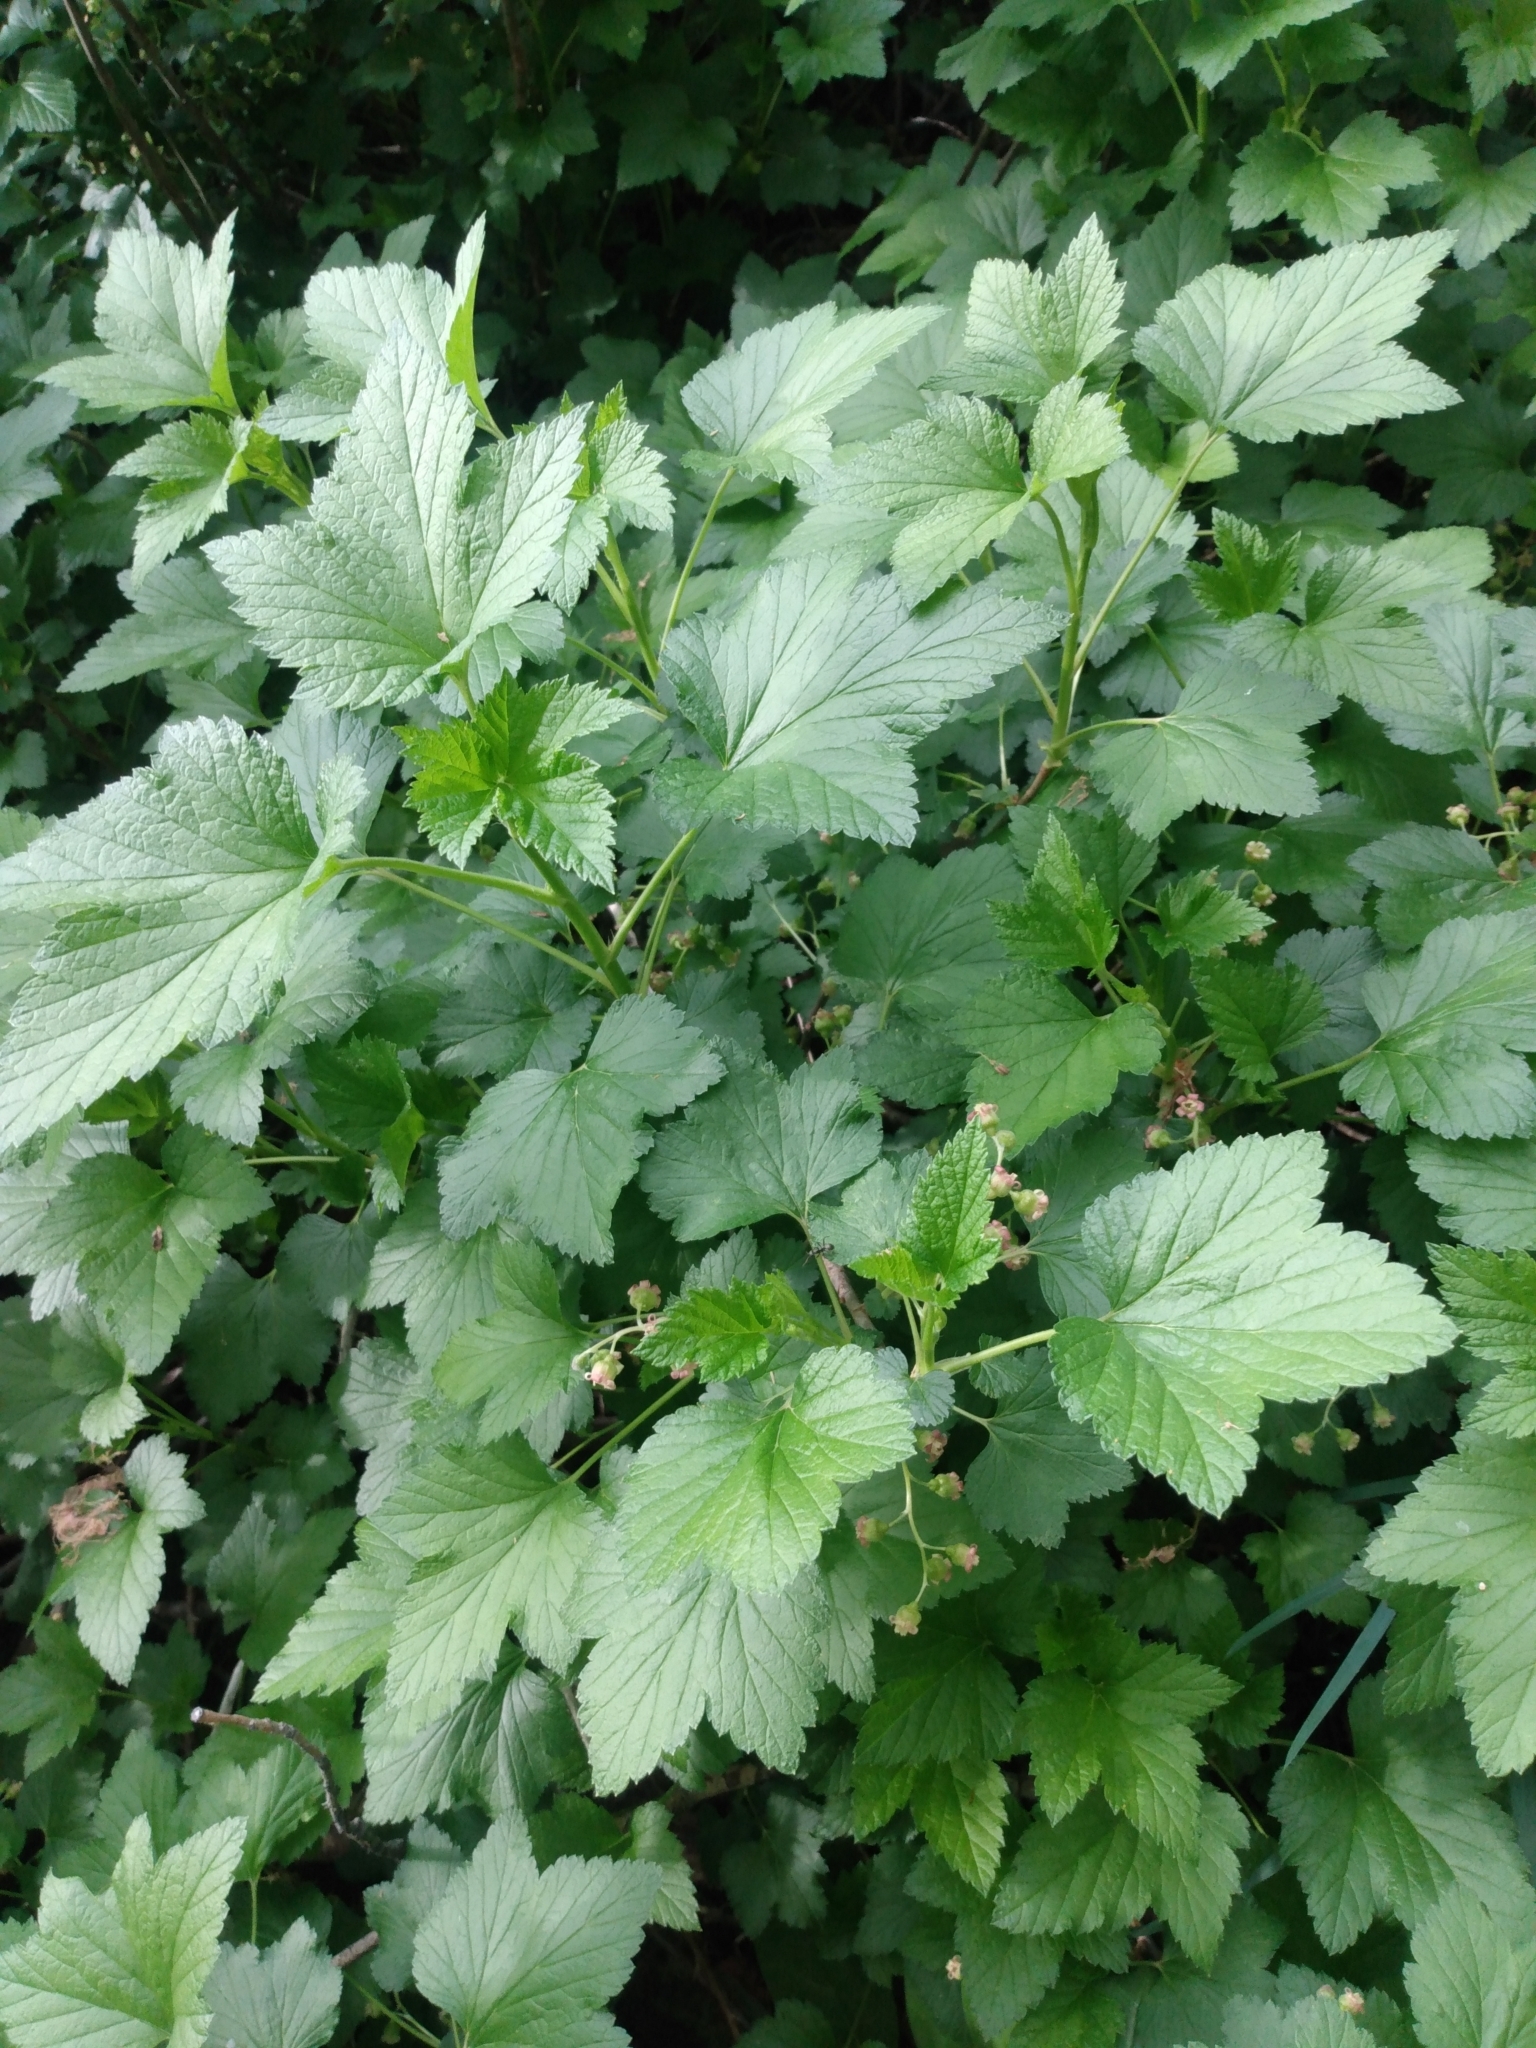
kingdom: Plantae
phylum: Tracheophyta
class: Magnoliopsida
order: Saxifragales
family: Grossulariaceae
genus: Ribes
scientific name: Ribes nigrum
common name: Black currant
